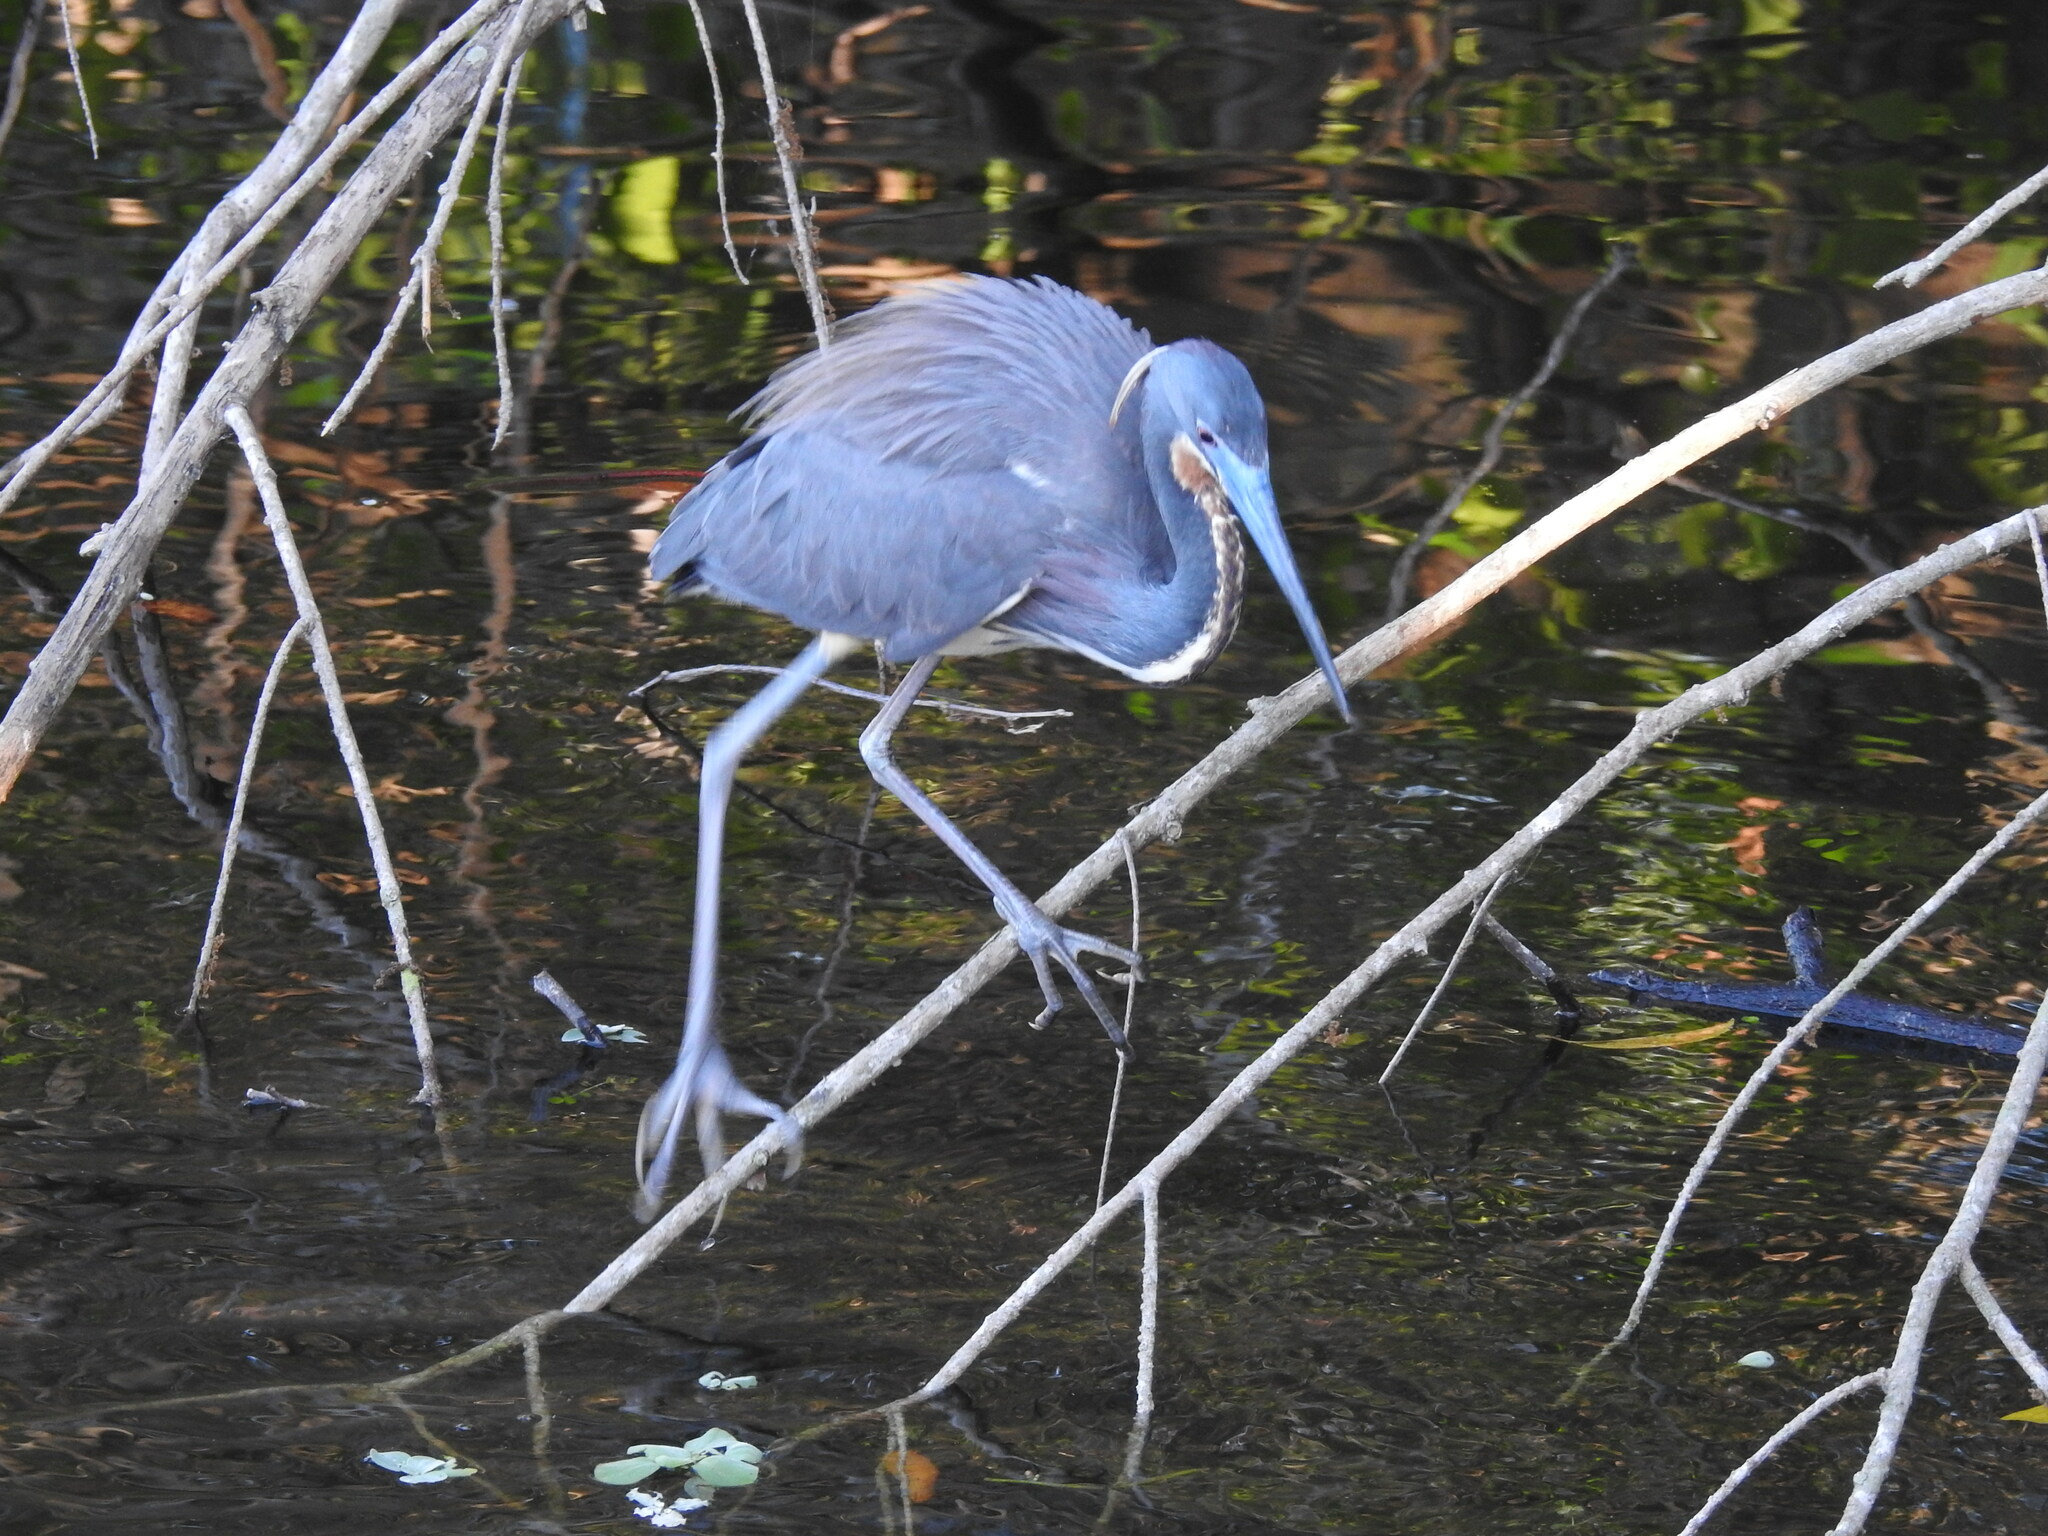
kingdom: Animalia
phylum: Chordata
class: Aves
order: Pelecaniformes
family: Ardeidae
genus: Egretta
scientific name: Egretta tricolor
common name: Tricolored heron
